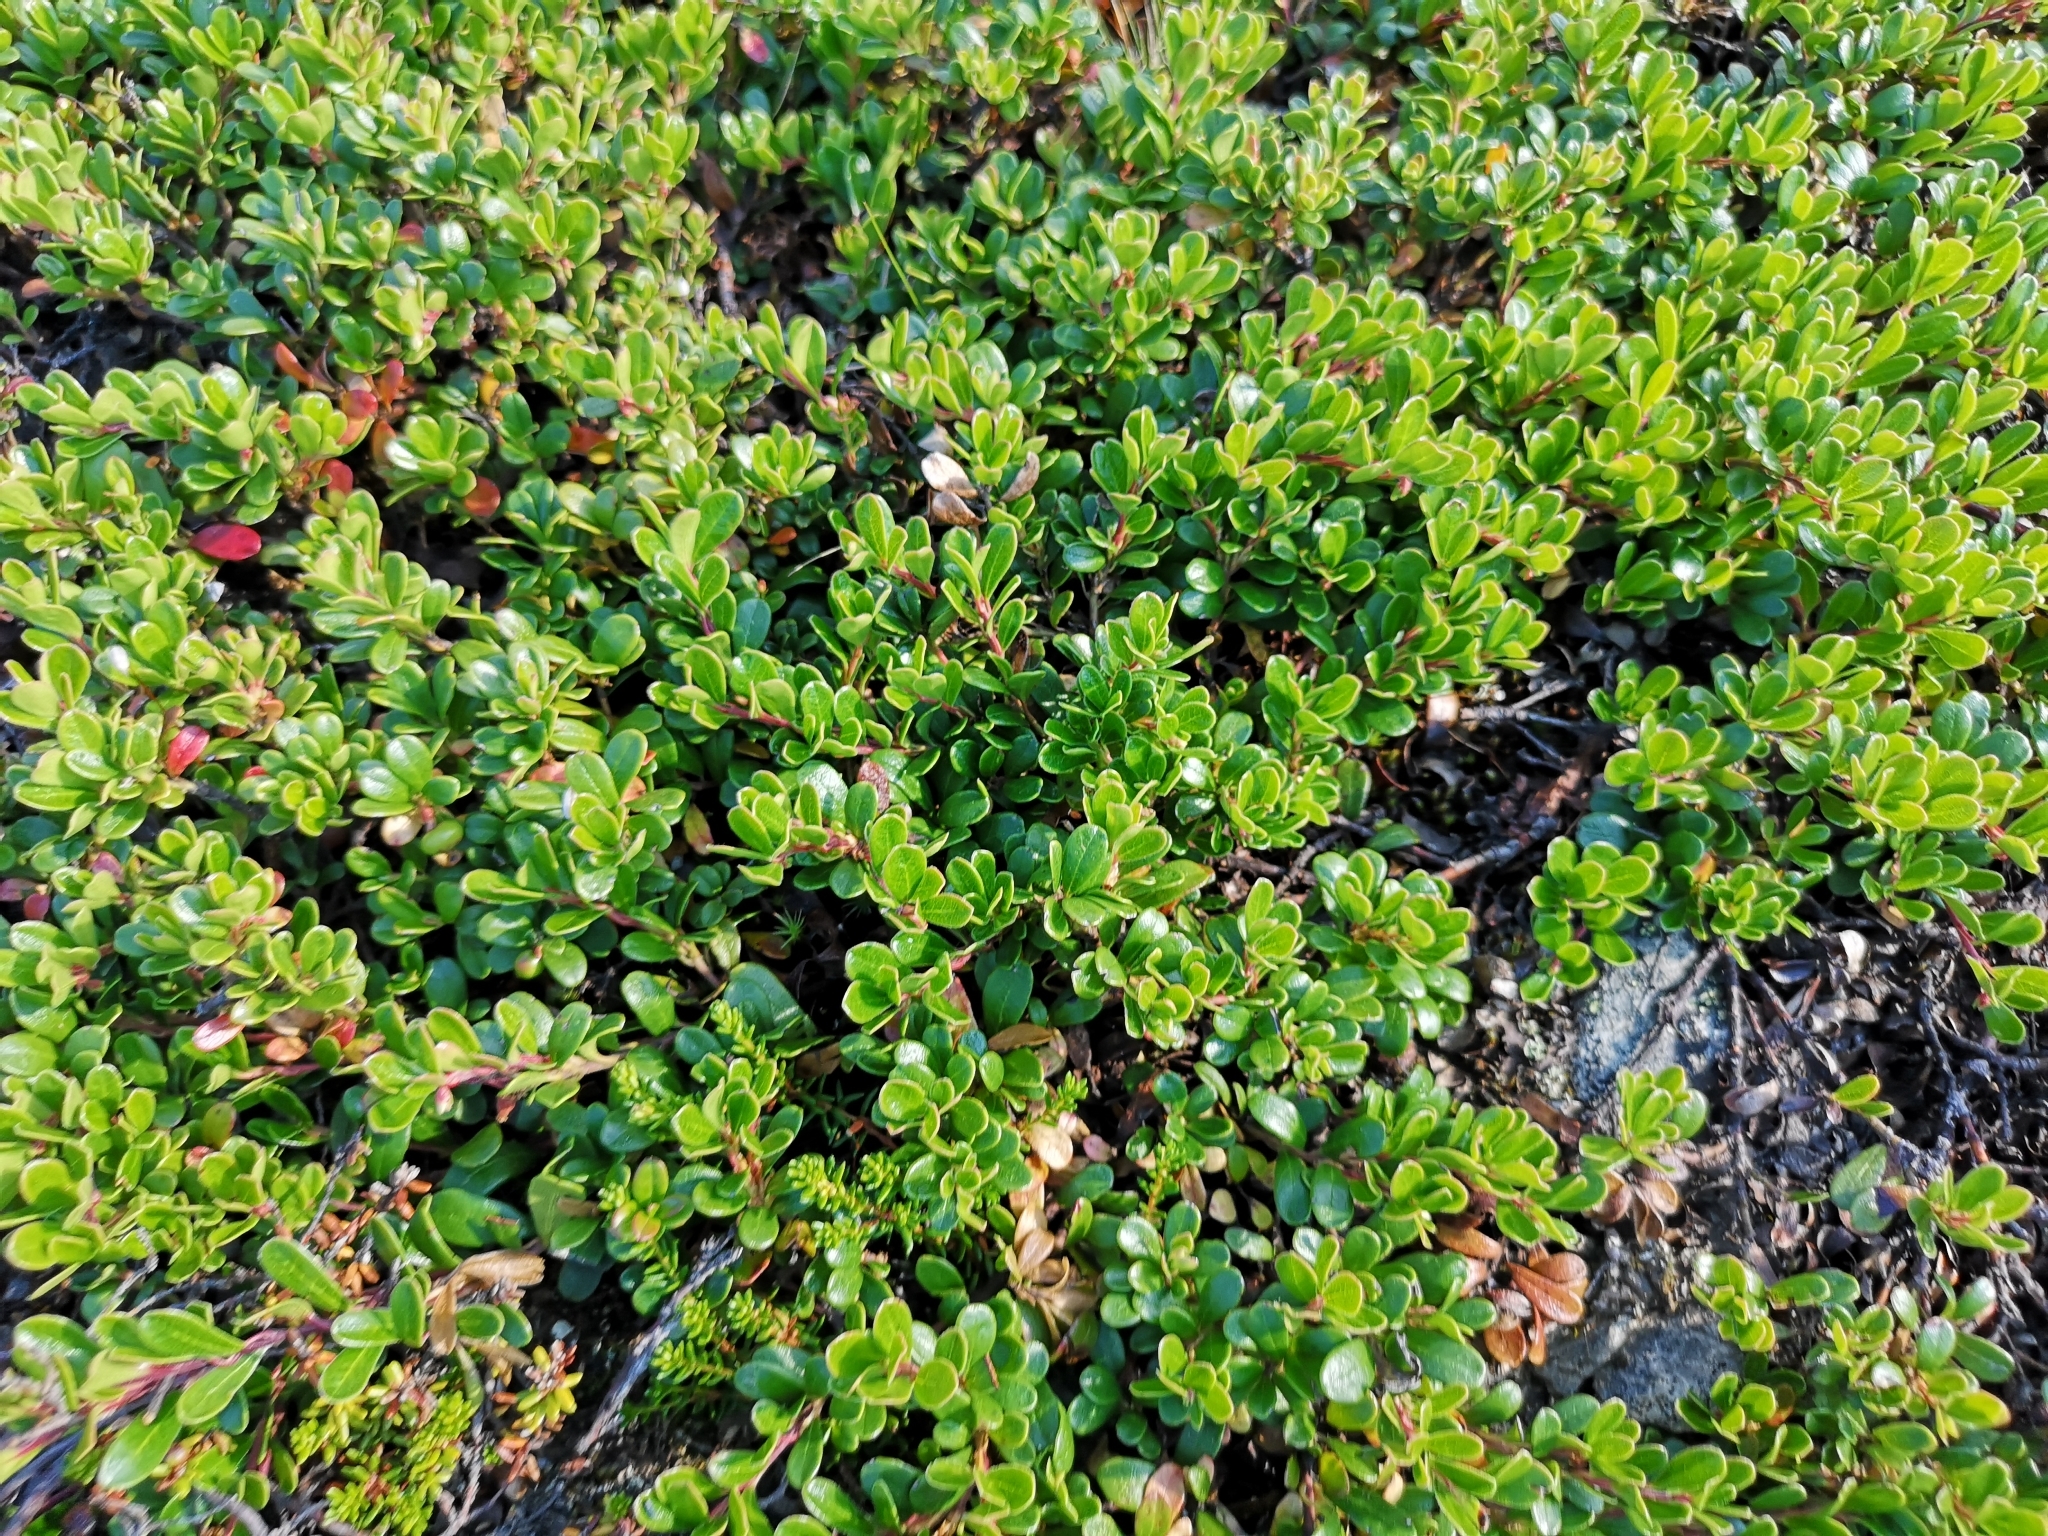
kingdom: Plantae
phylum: Tracheophyta
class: Magnoliopsida
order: Ericales
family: Ericaceae
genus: Arctostaphylos
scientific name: Arctostaphylos uva-ursi
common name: Bearberry
